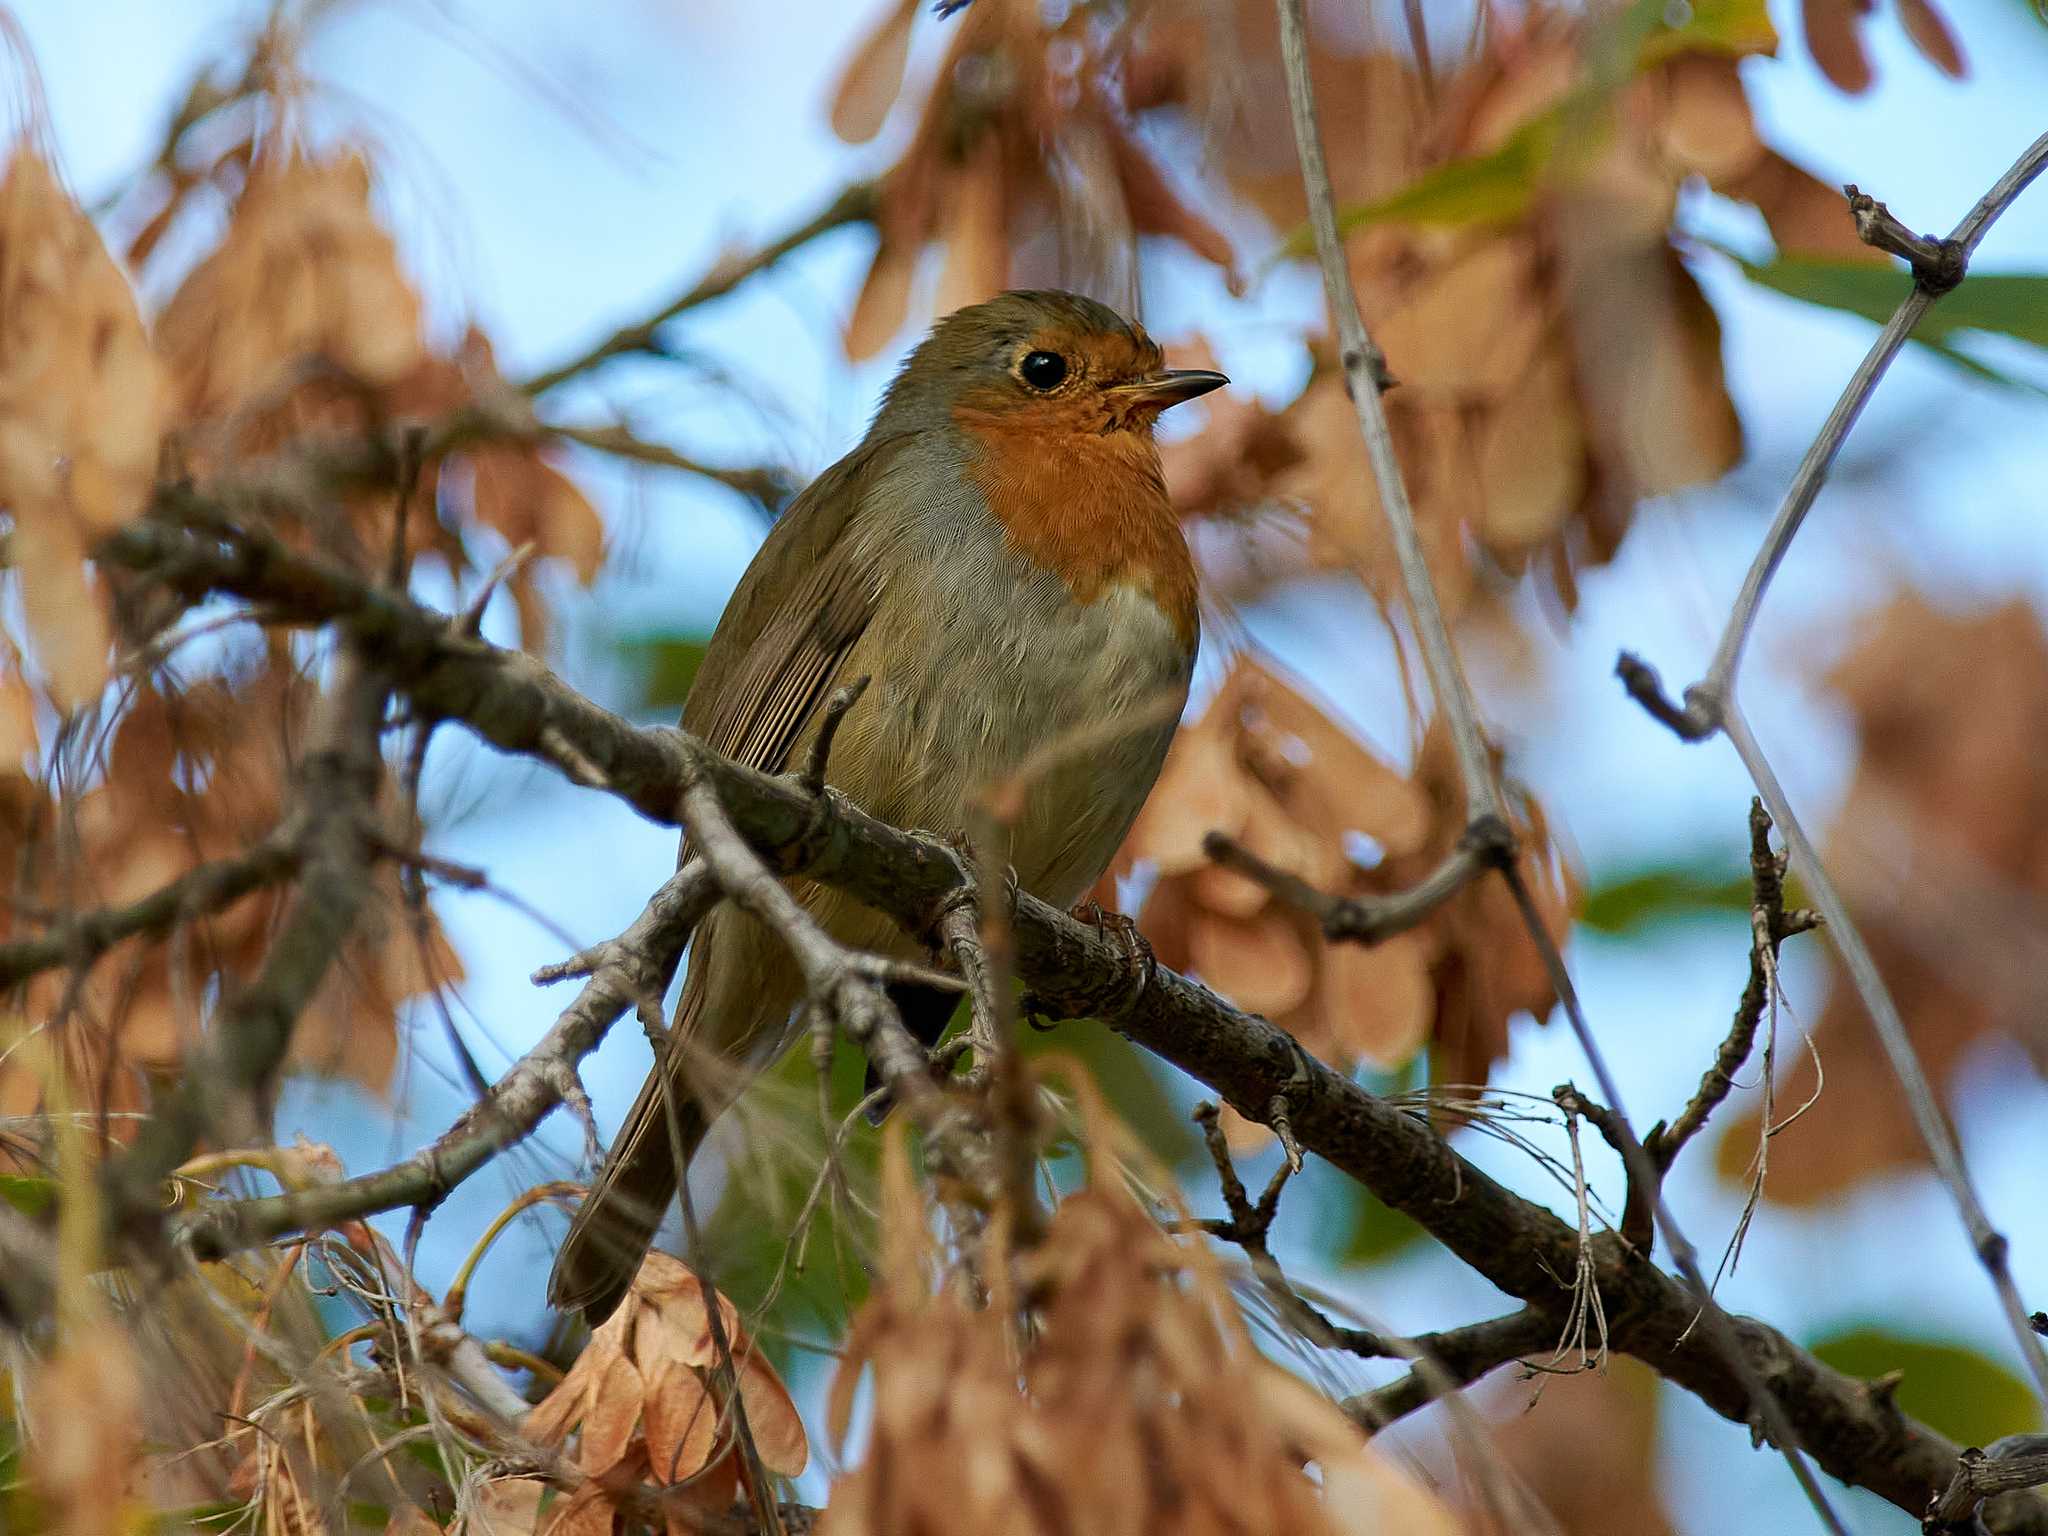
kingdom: Animalia
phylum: Chordata
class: Aves
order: Passeriformes
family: Muscicapidae
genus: Erithacus
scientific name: Erithacus rubecula
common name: European robin
